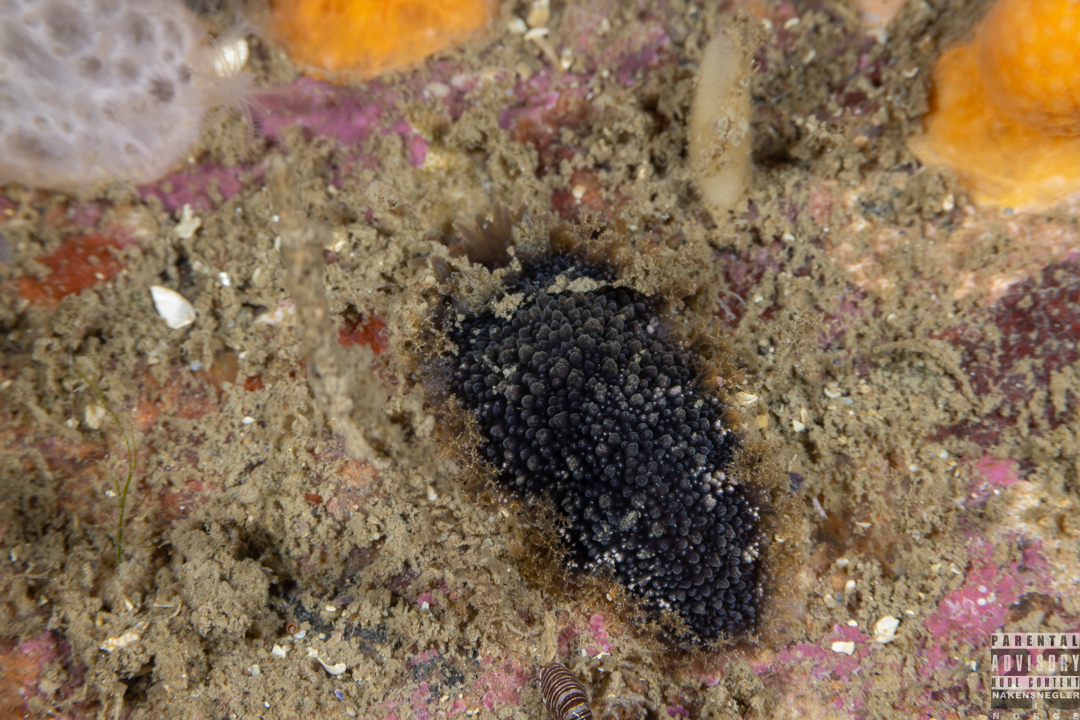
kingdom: Animalia
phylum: Mollusca
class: Gastropoda
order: Nudibranchia
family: Tritoniidae
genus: Tritonia
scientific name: Tritonia hombergii
